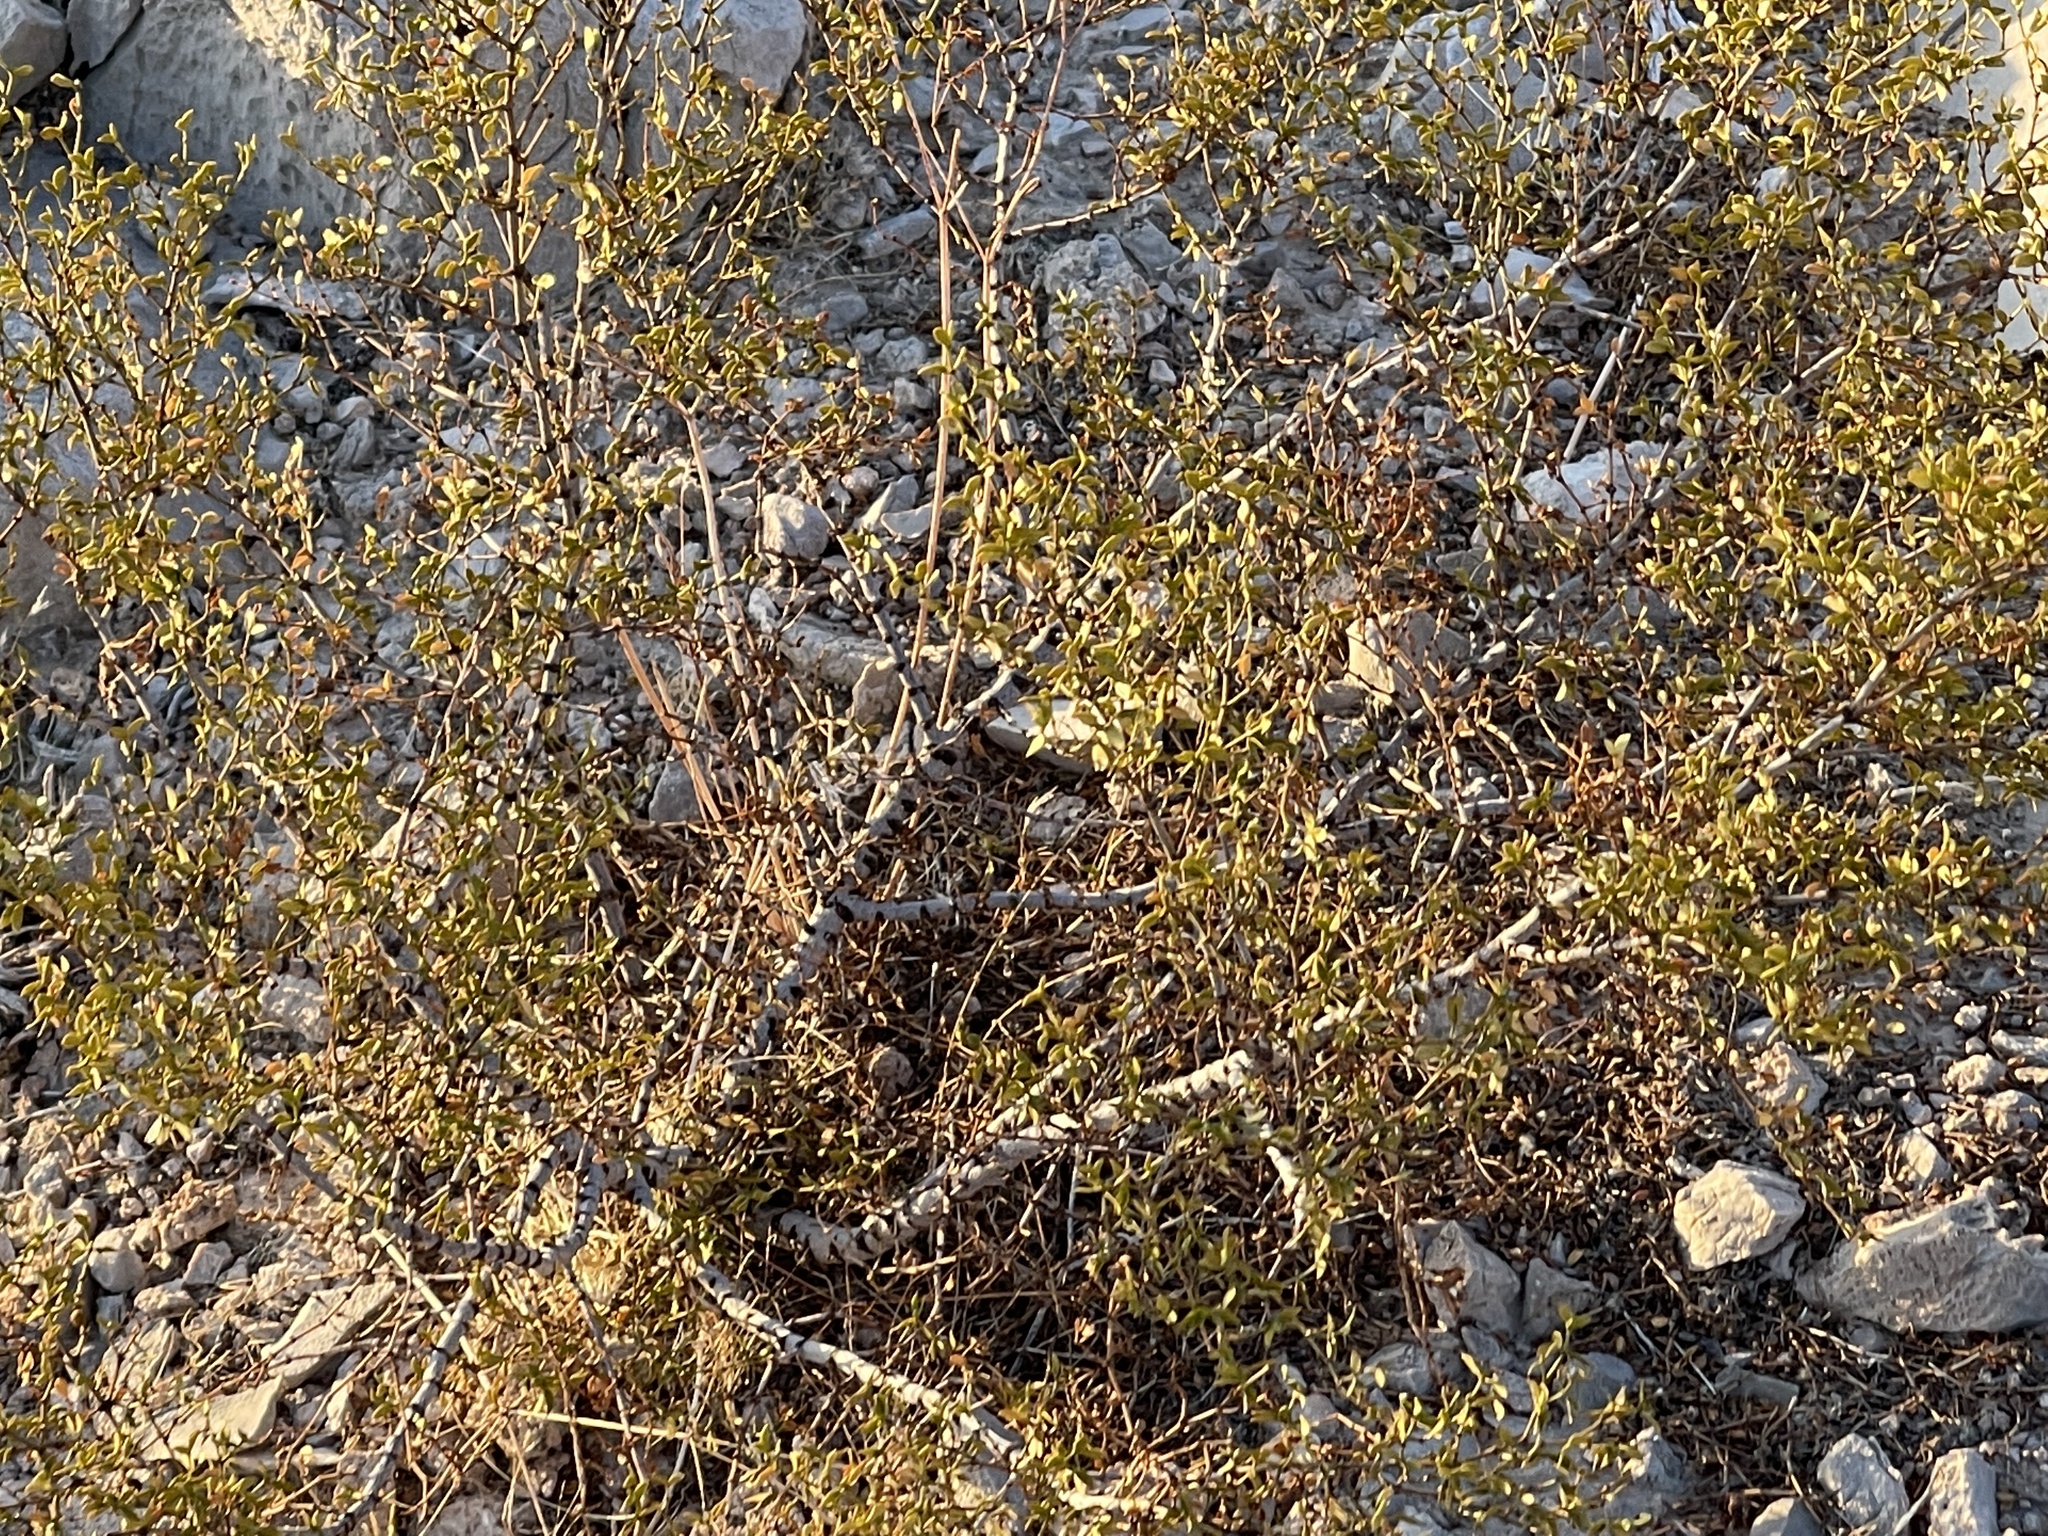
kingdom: Plantae
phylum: Tracheophyta
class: Magnoliopsida
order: Zygophyllales
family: Zygophyllaceae
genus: Larrea
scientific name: Larrea tridentata
